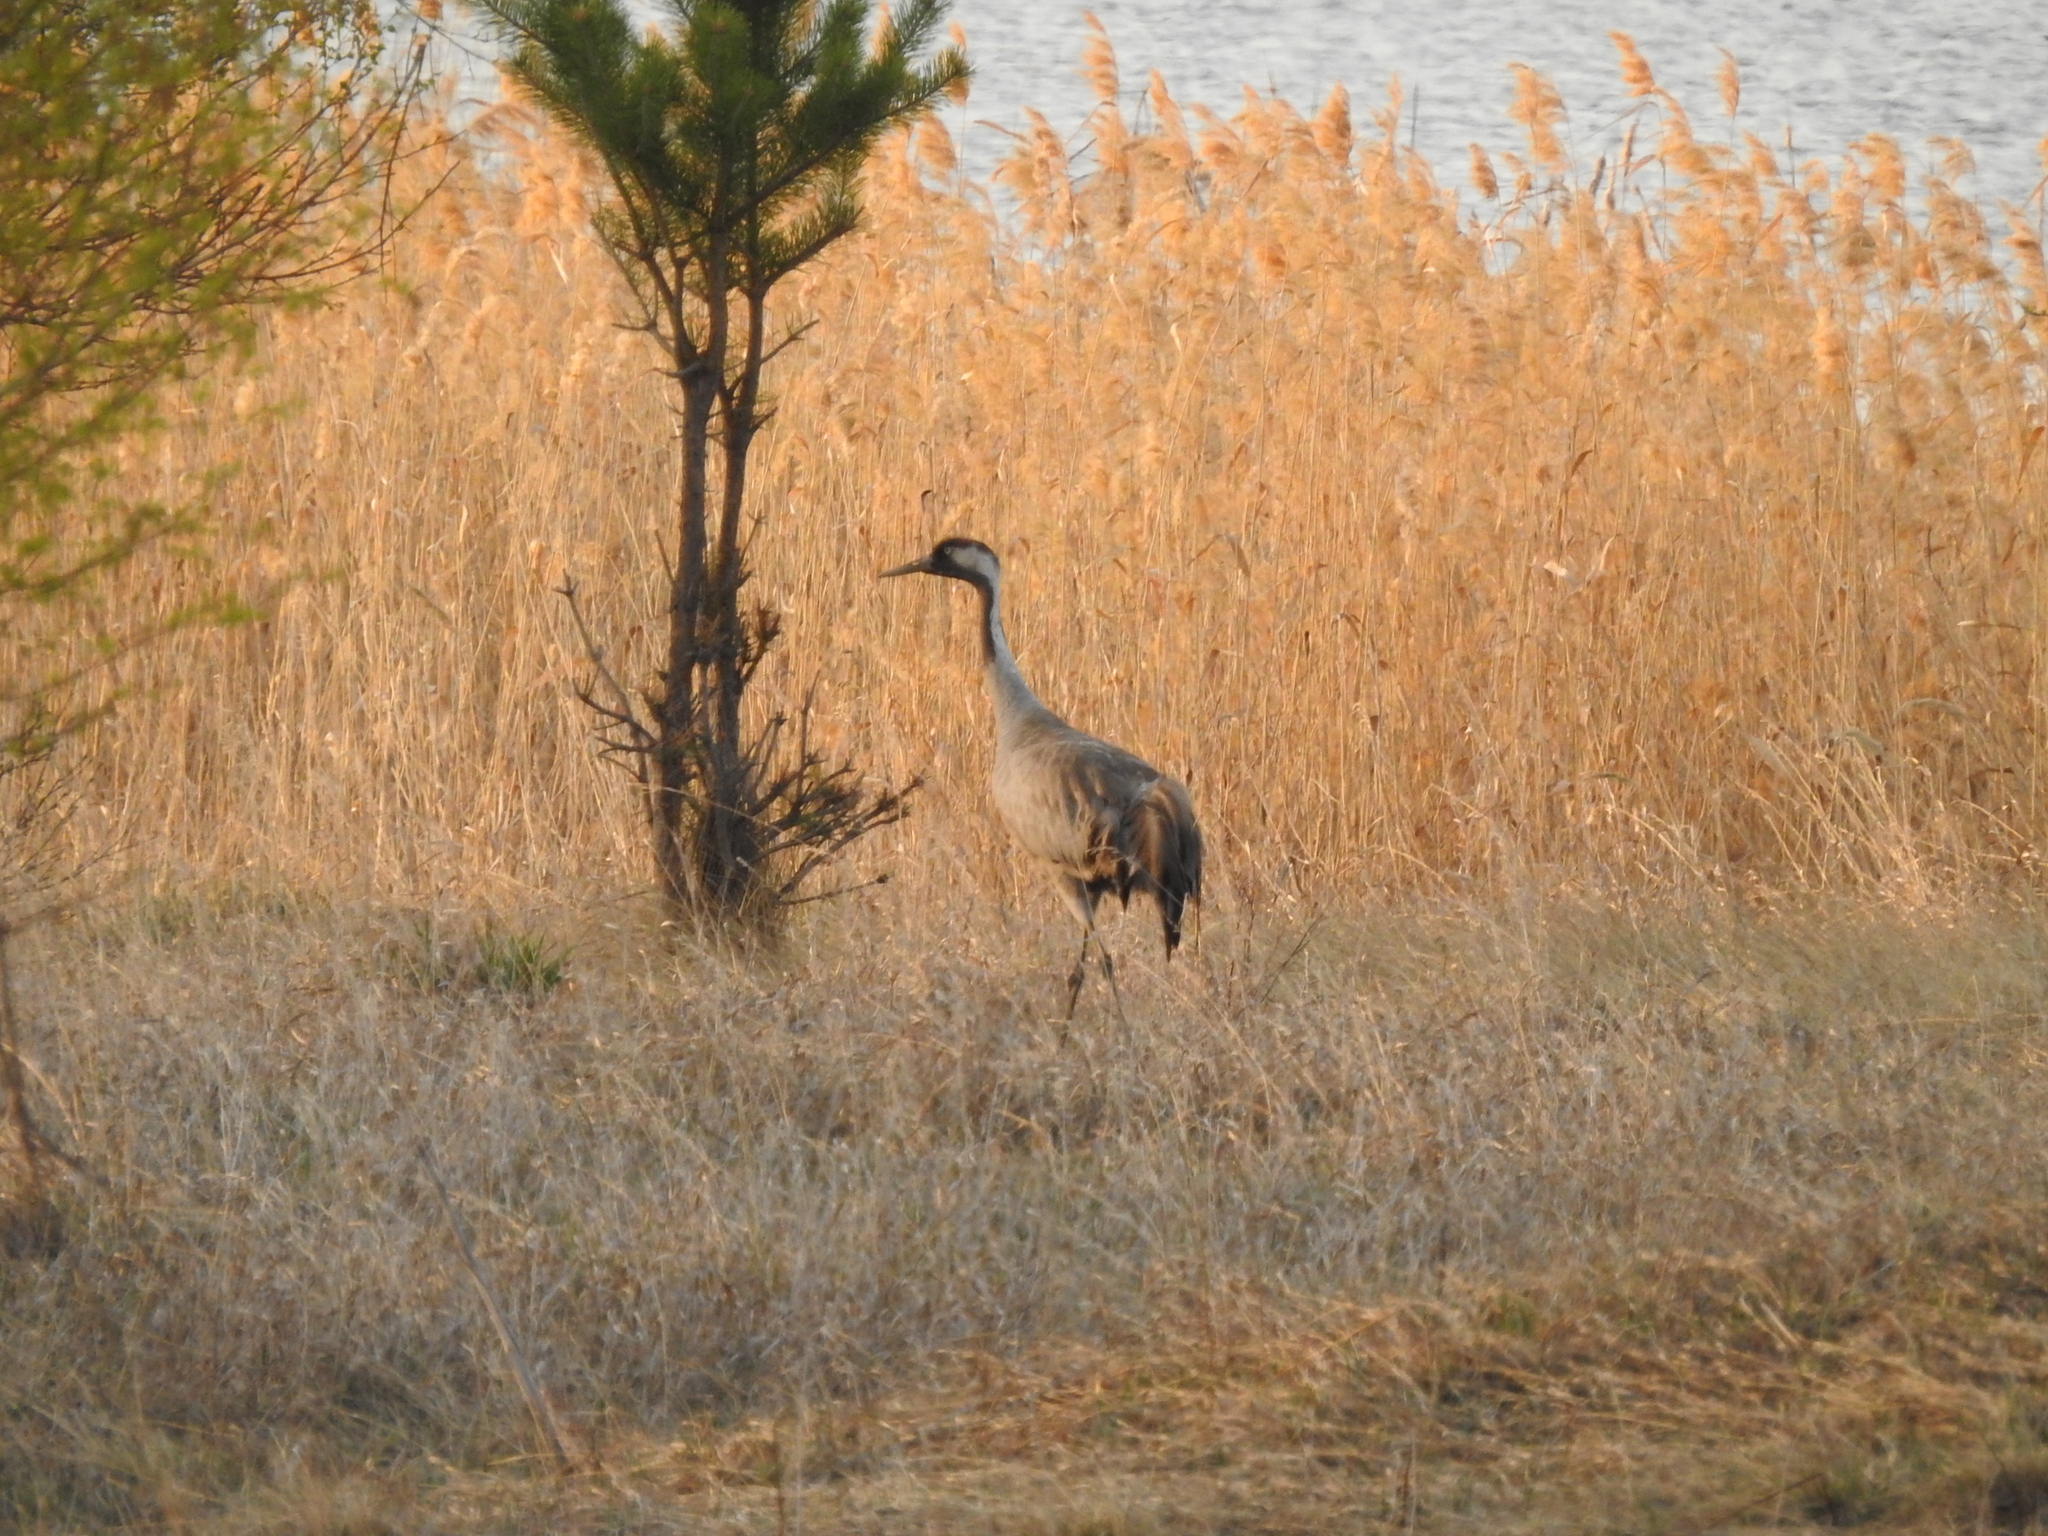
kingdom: Animalia
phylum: Chordata
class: Aves
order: Gruiformes
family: Gruidae
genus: Grus
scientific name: Grus grus
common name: Common crane
